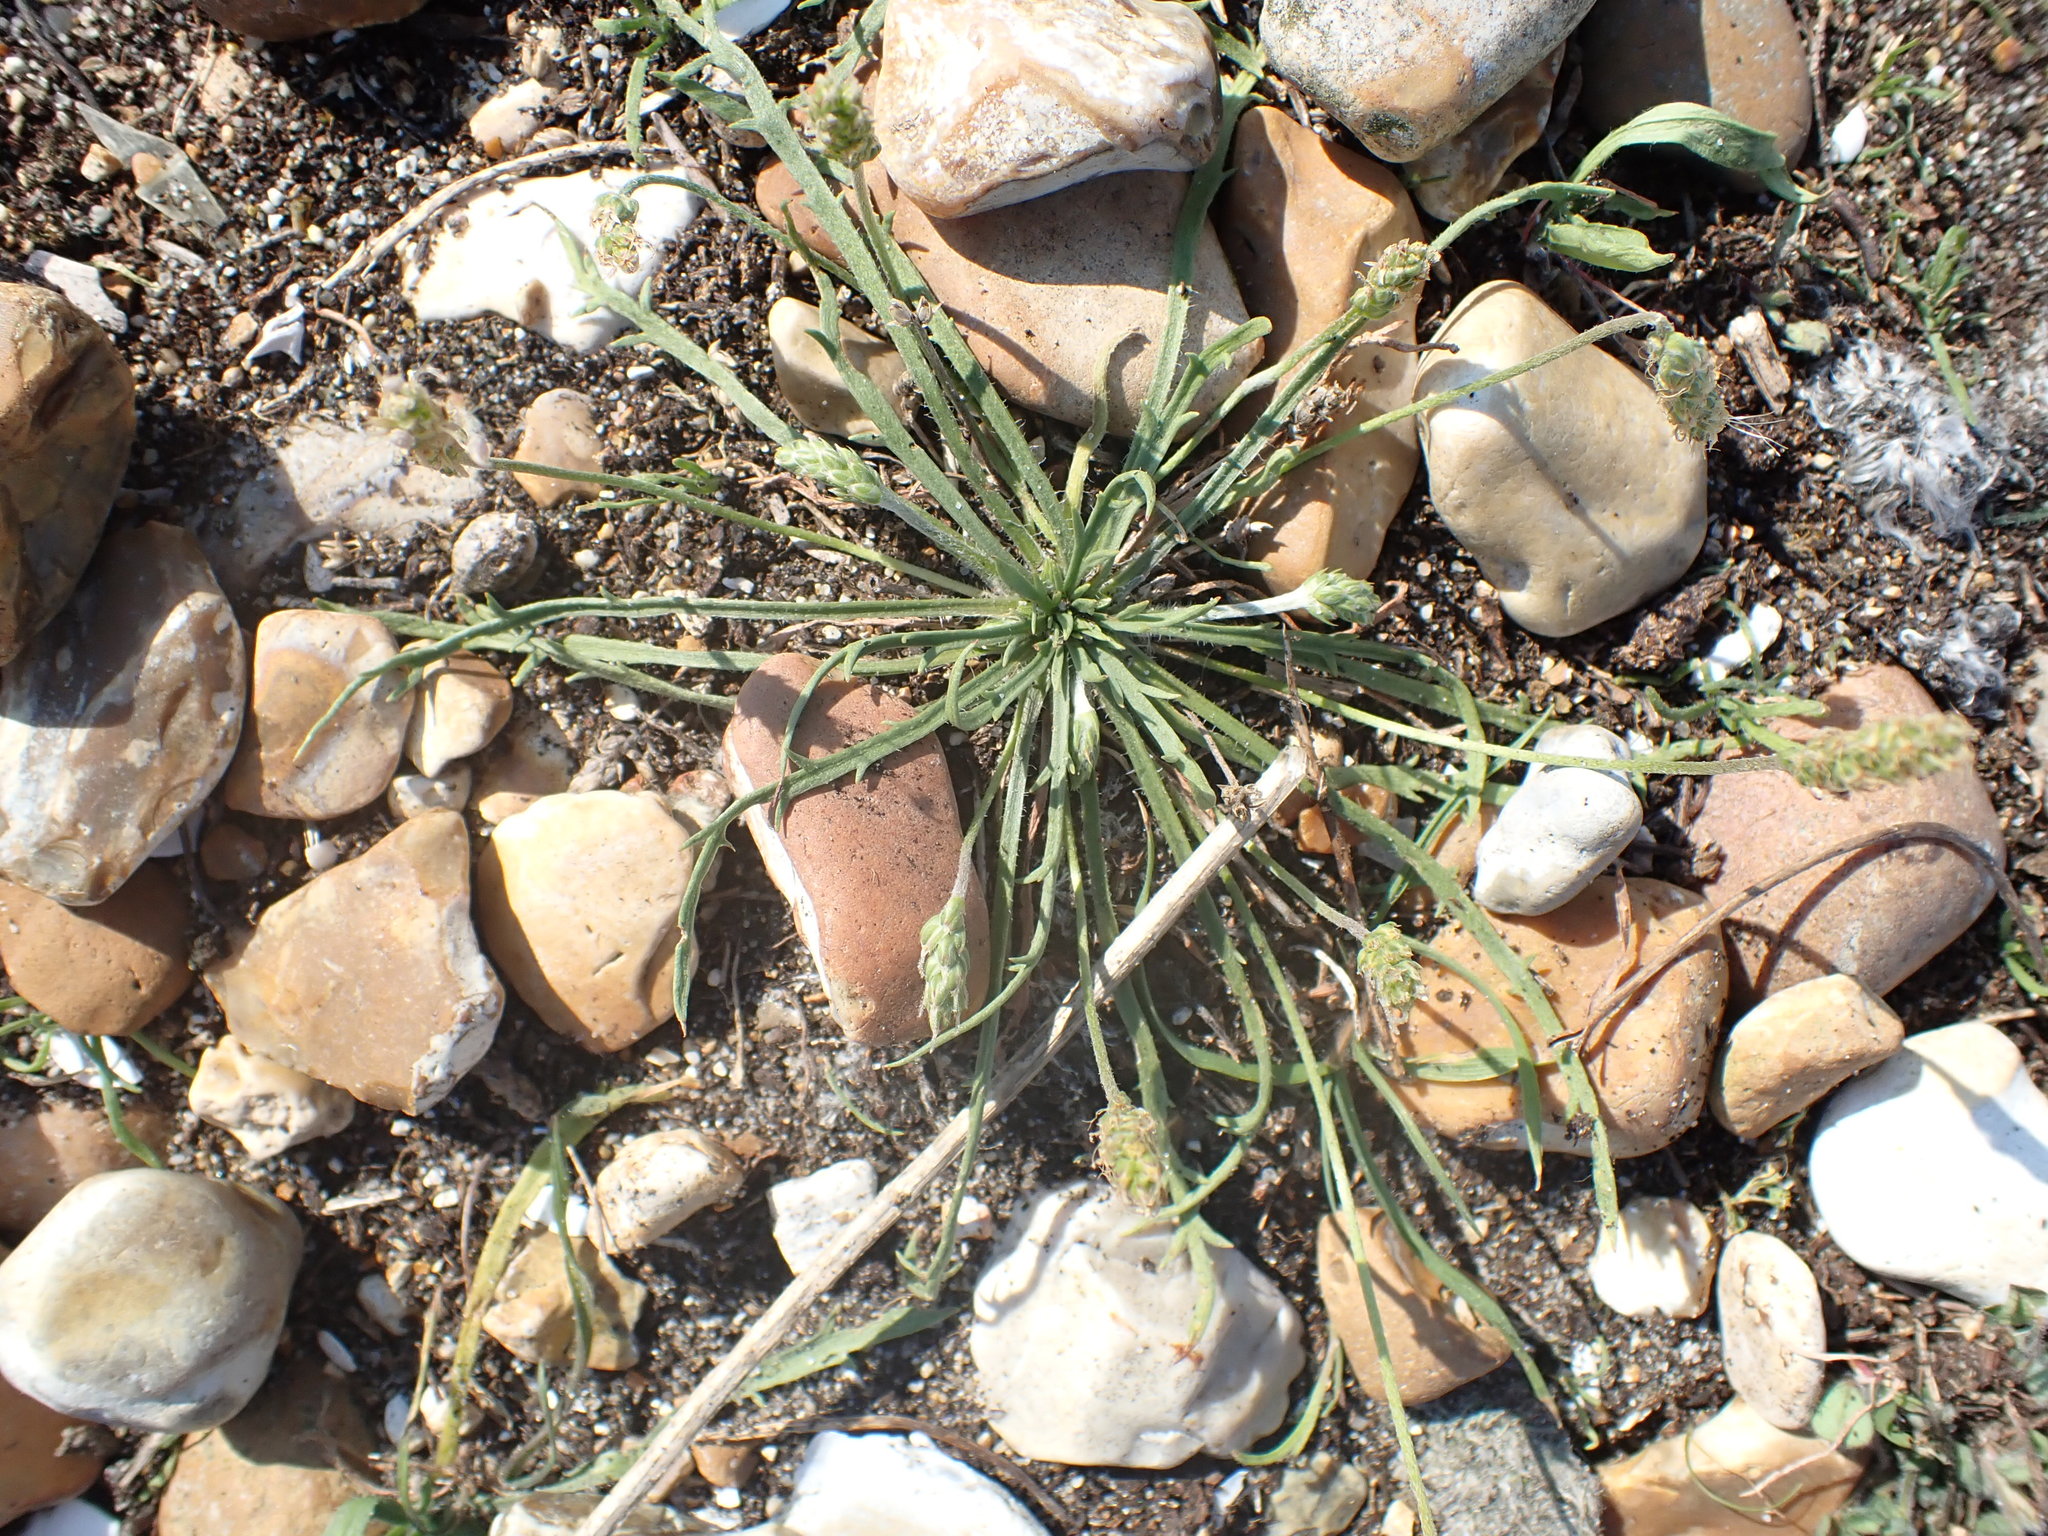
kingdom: Plantae
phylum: Tracheophyta
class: Magnoliopsida
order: Lamiales
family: Plantaginaceae
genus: Plantago
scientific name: Plantago coronopus
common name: Buck's-horn plantain
